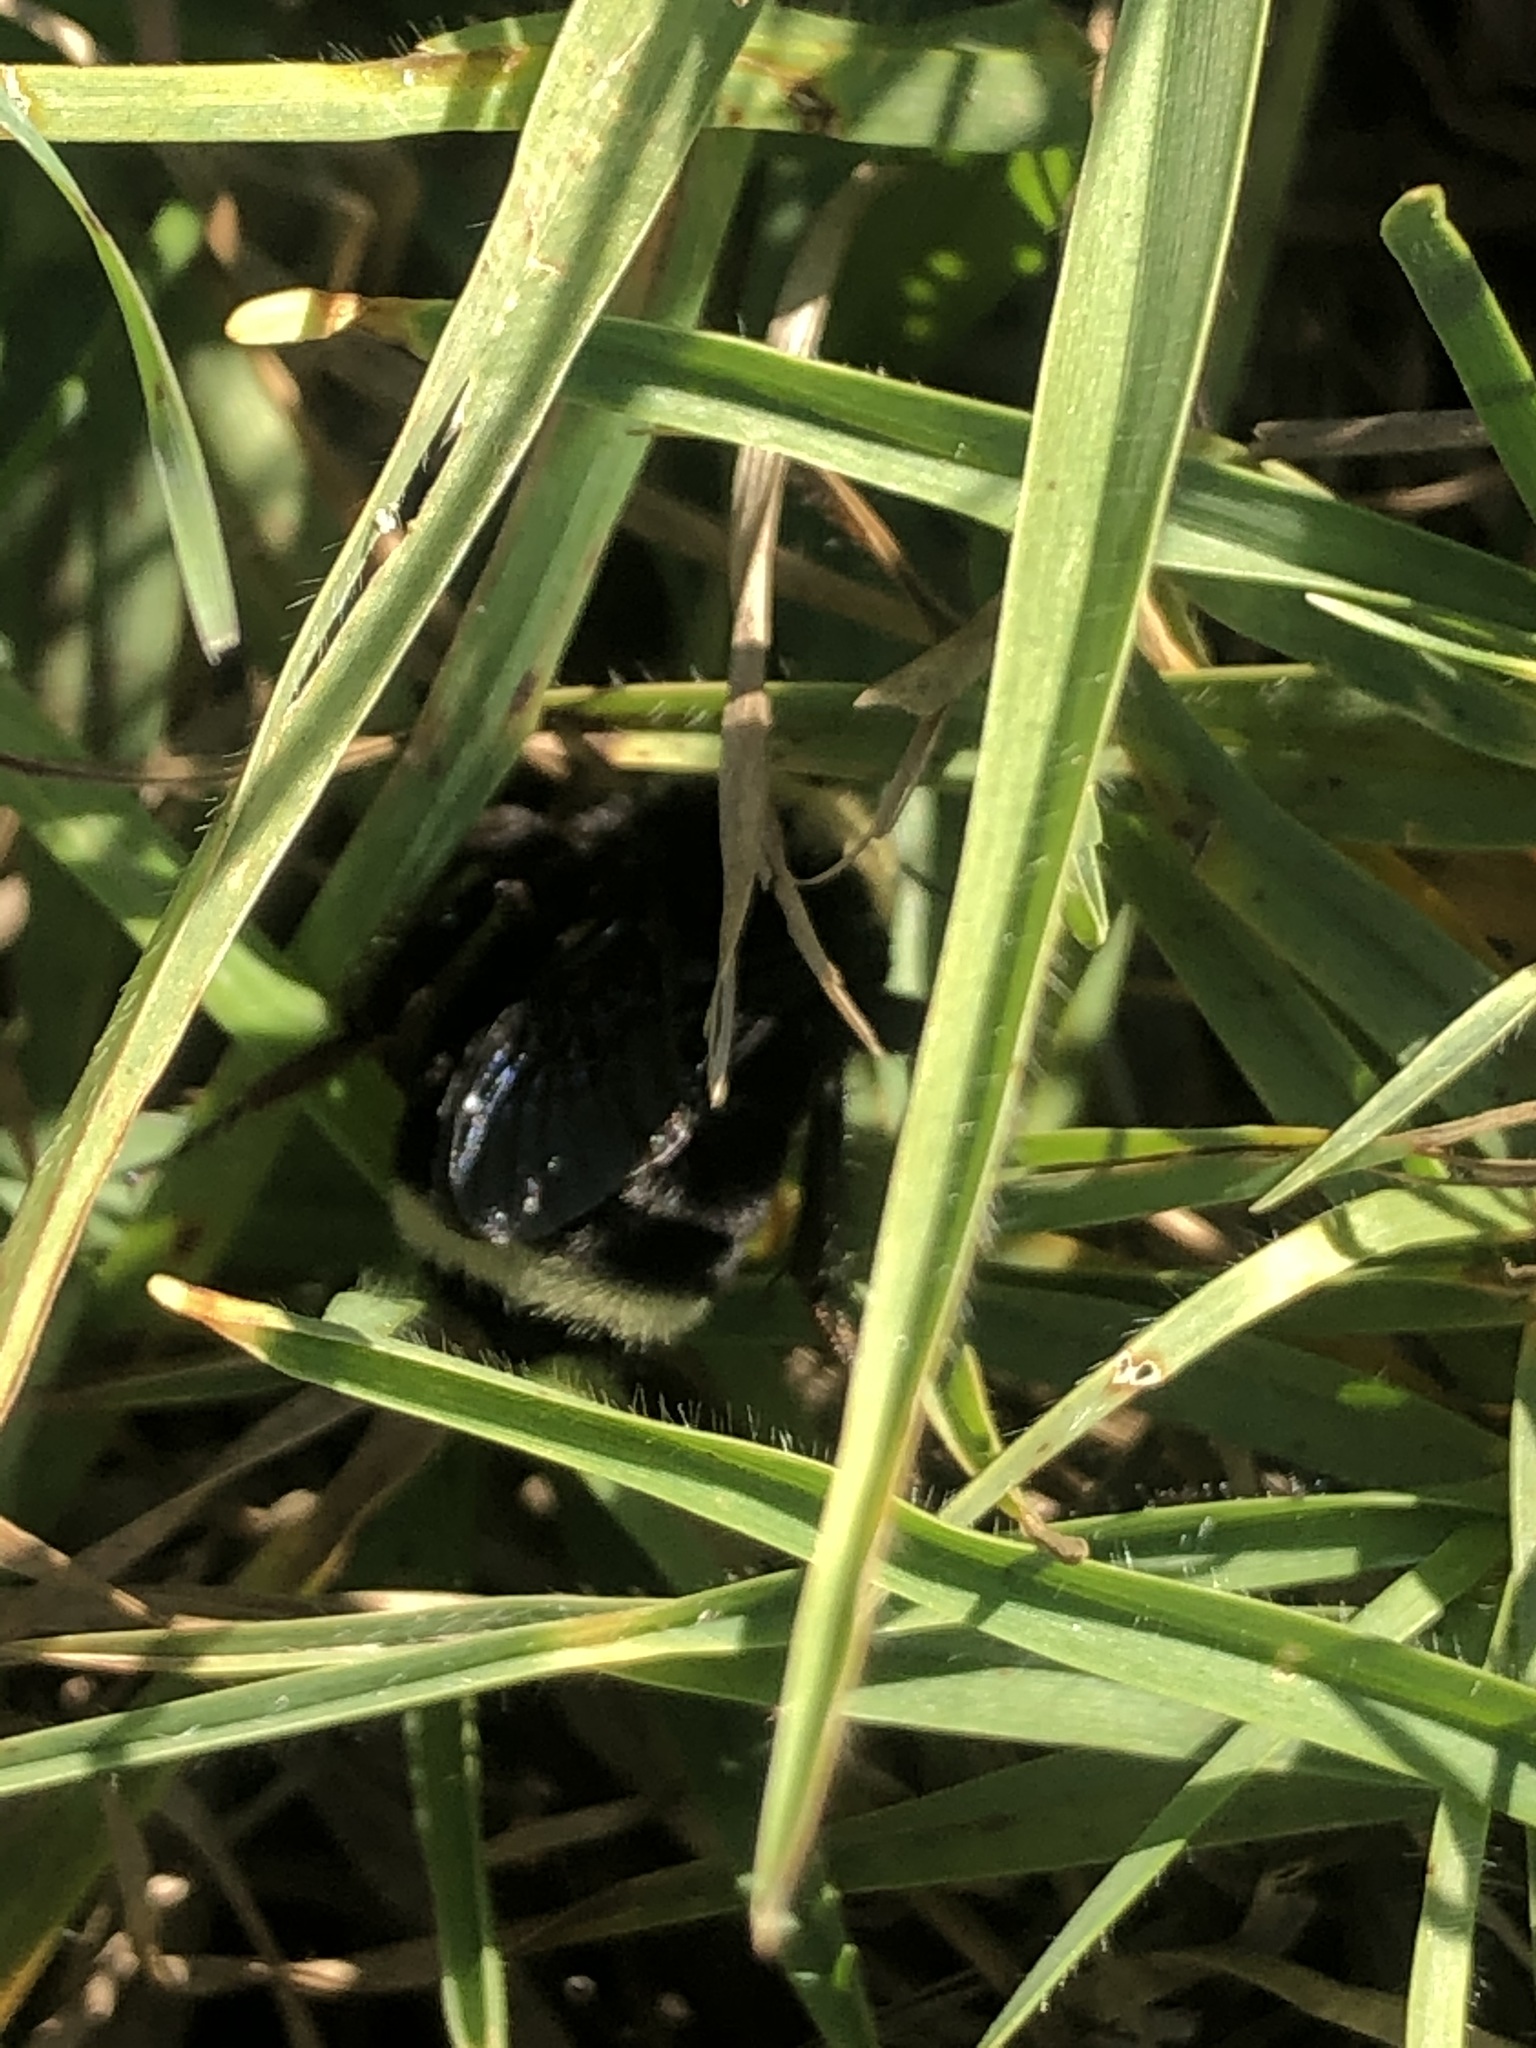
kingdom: Animalia
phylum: Arthropoda
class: Insecta
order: Hymenoptera
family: Apidae
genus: Bombus
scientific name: Bombus vosnesenskii
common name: Vosnesensky bumble bee
